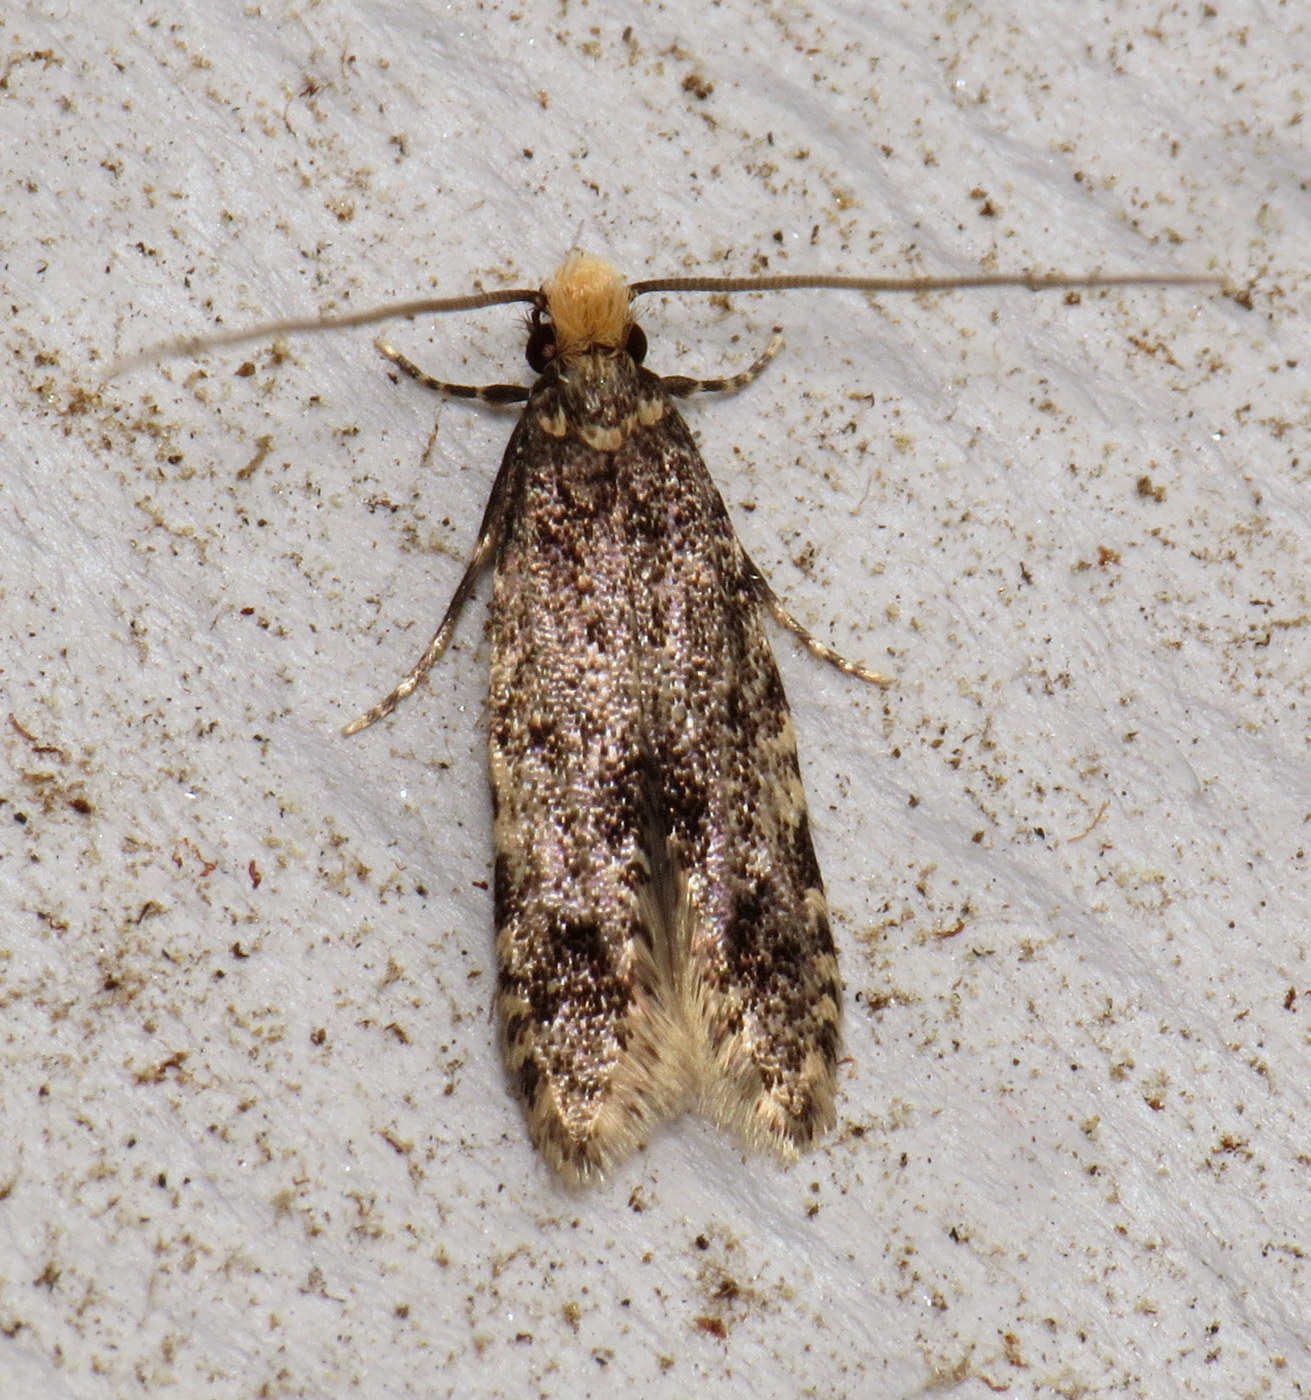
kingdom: Animalia
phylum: Arthropoda
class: Insecta
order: Lepidoptera
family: Tineidae
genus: Monopis
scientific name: Monopis laevigella
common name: Skin moth
